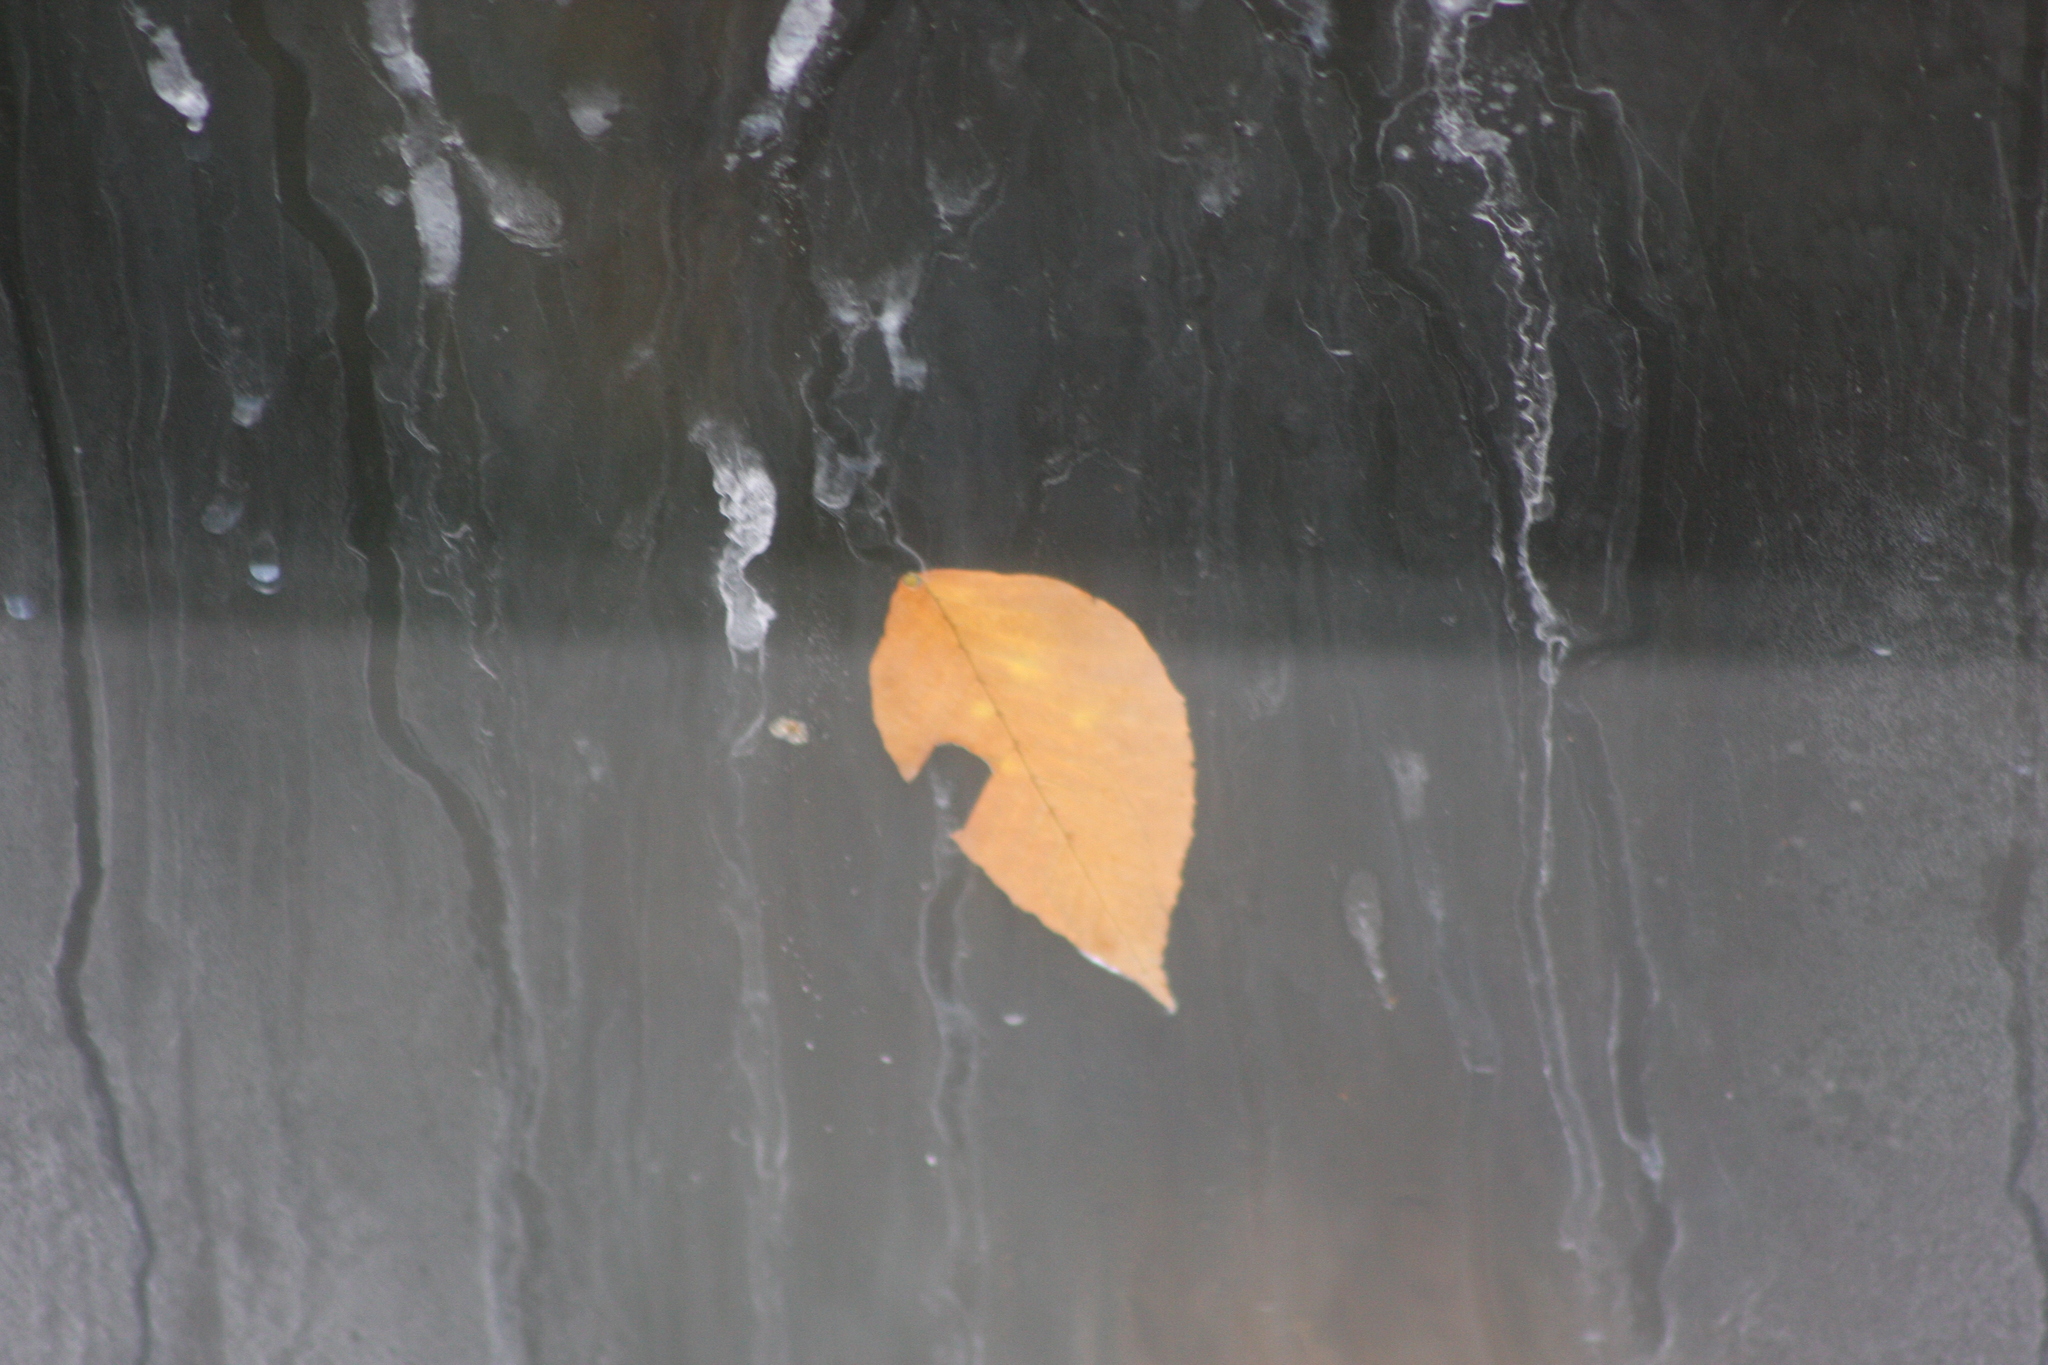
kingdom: Plantae
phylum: Tracheophyta
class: Magnoliopsida
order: Fagales
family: Fagaceae
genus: Fagus
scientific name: Fagus grandifolia
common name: American beech
